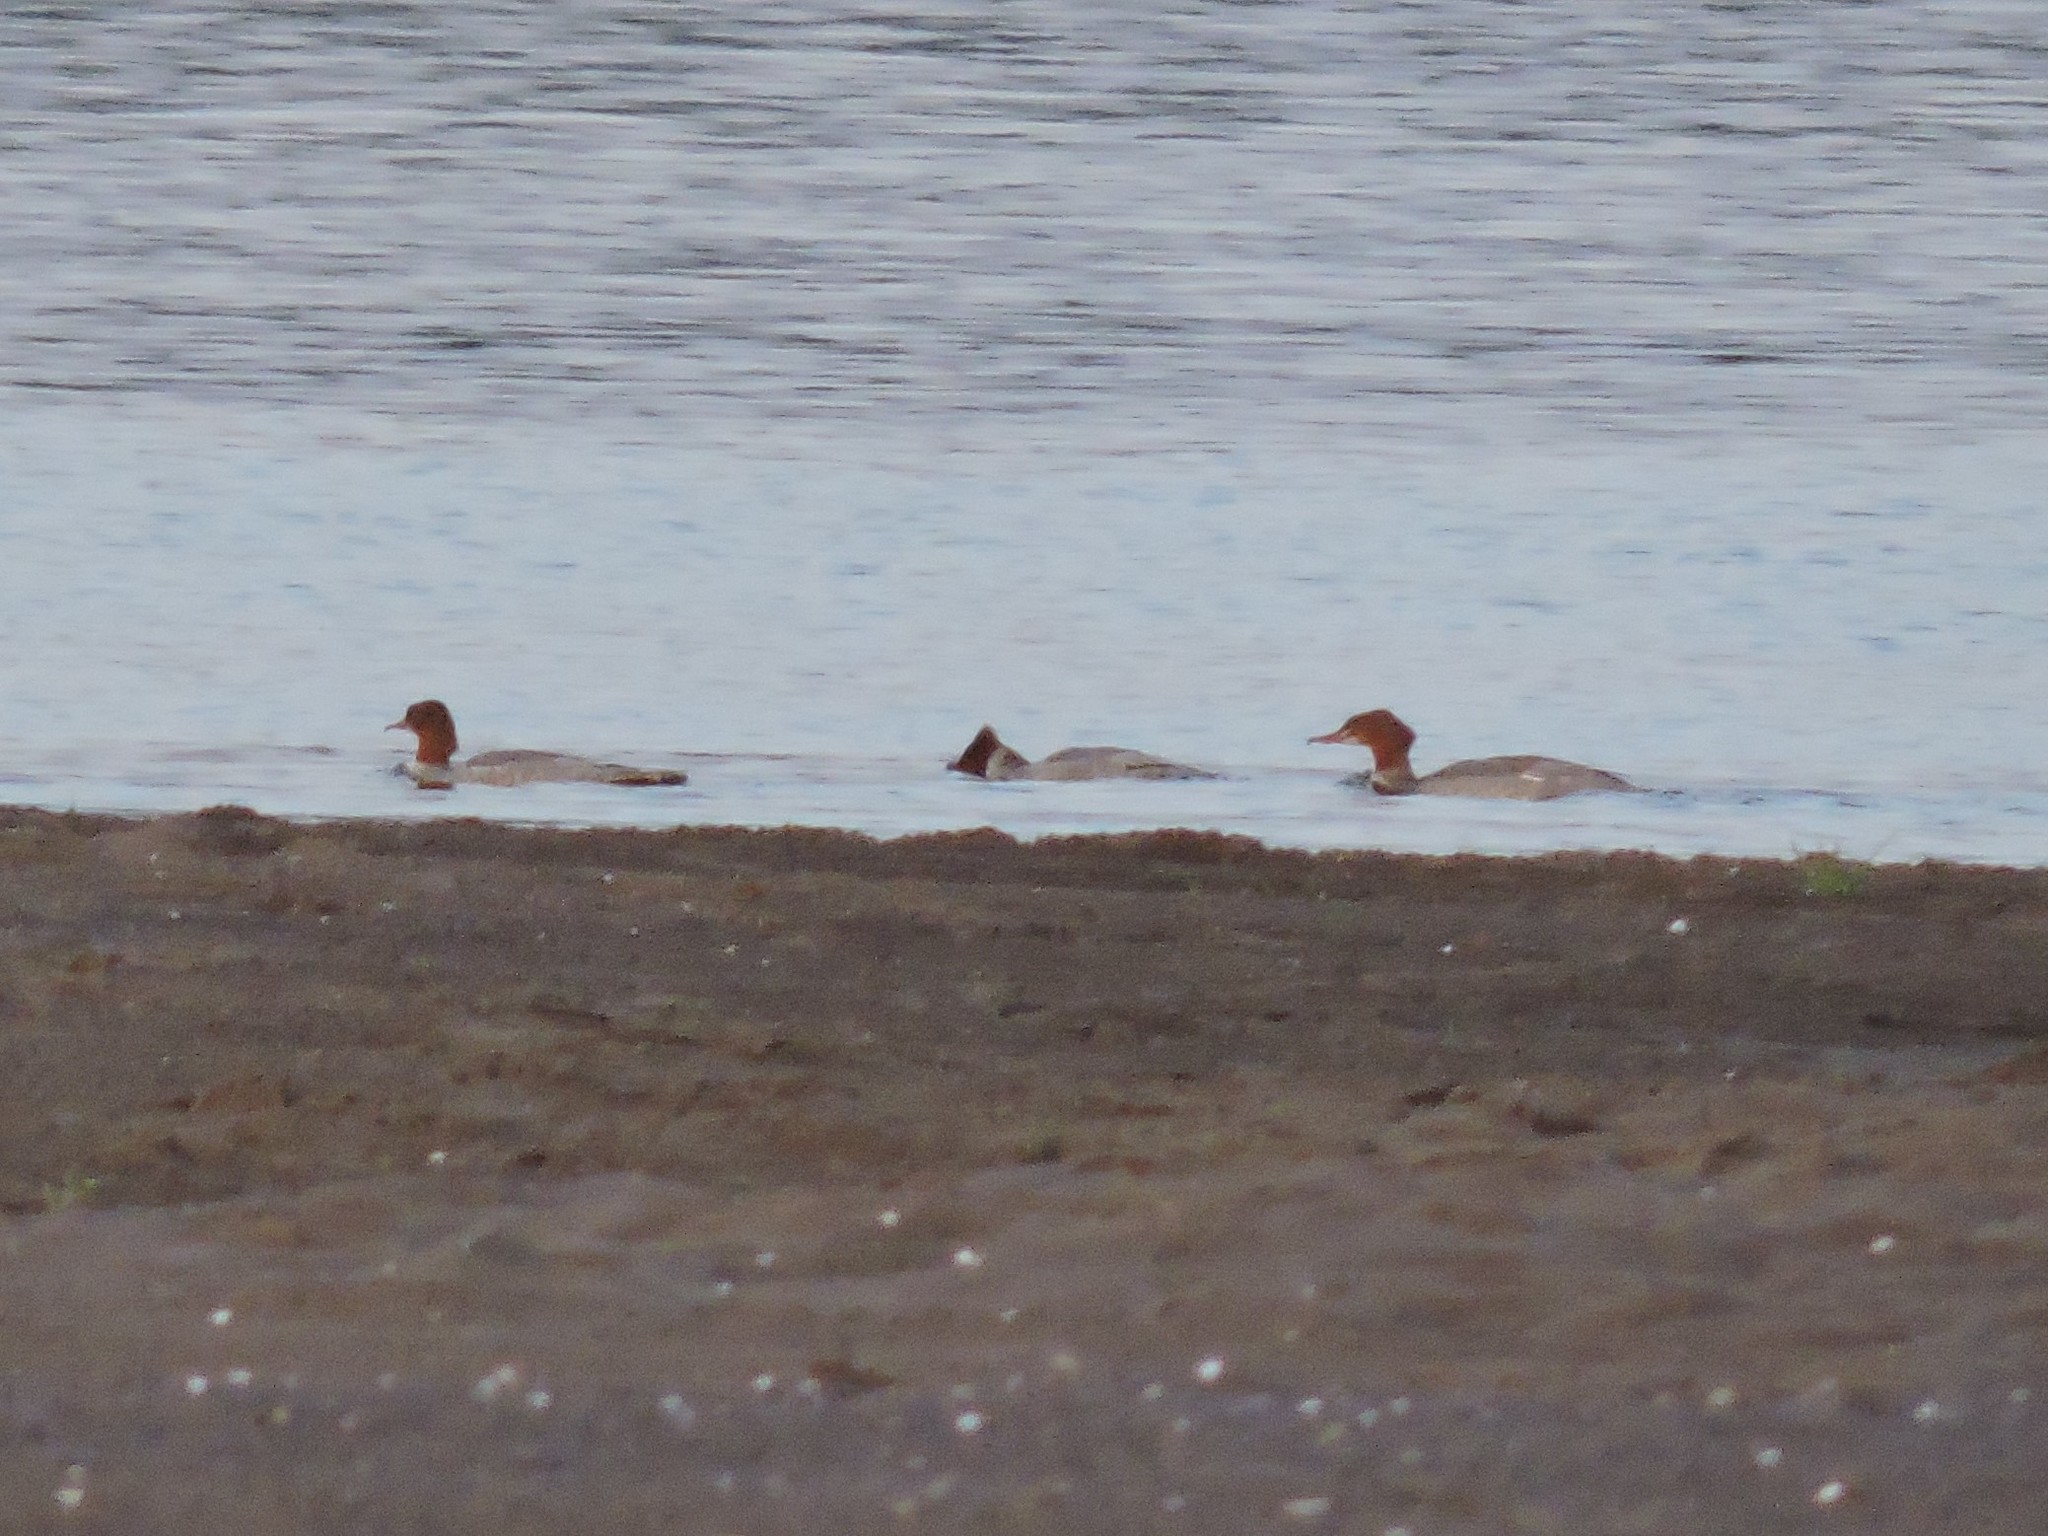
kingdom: Animalia
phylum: Chordata
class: Aves
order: Anseriformes
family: Anatidae
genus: Mergus
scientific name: Mergus merganser
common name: Common merganser
